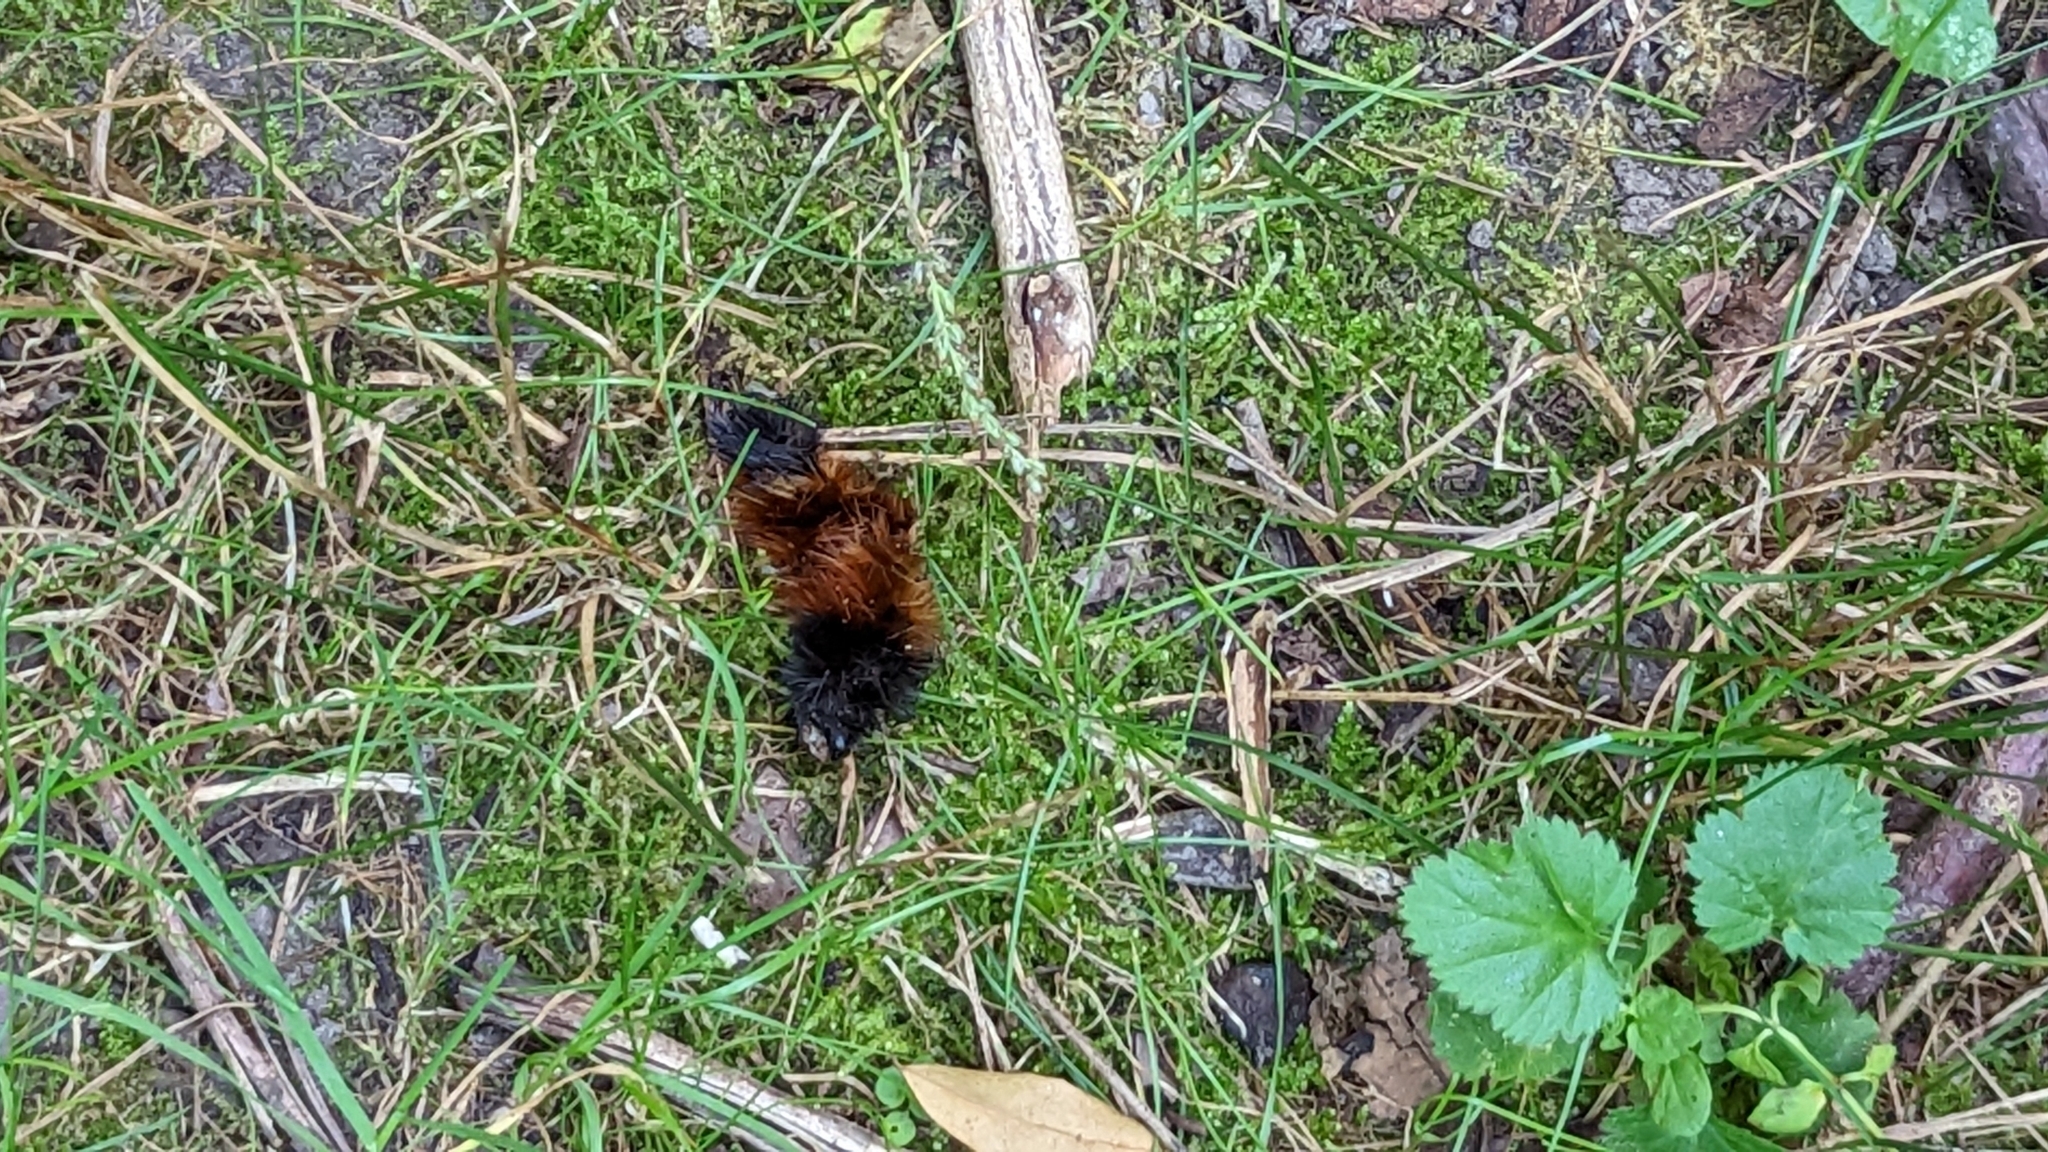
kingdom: Animalia
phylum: Arthropoda
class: Insecta
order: Lepidoptera
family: Erebidae
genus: Pyrrharctia
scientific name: Pyrrharctia isabella
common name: Isabella tiger moth
